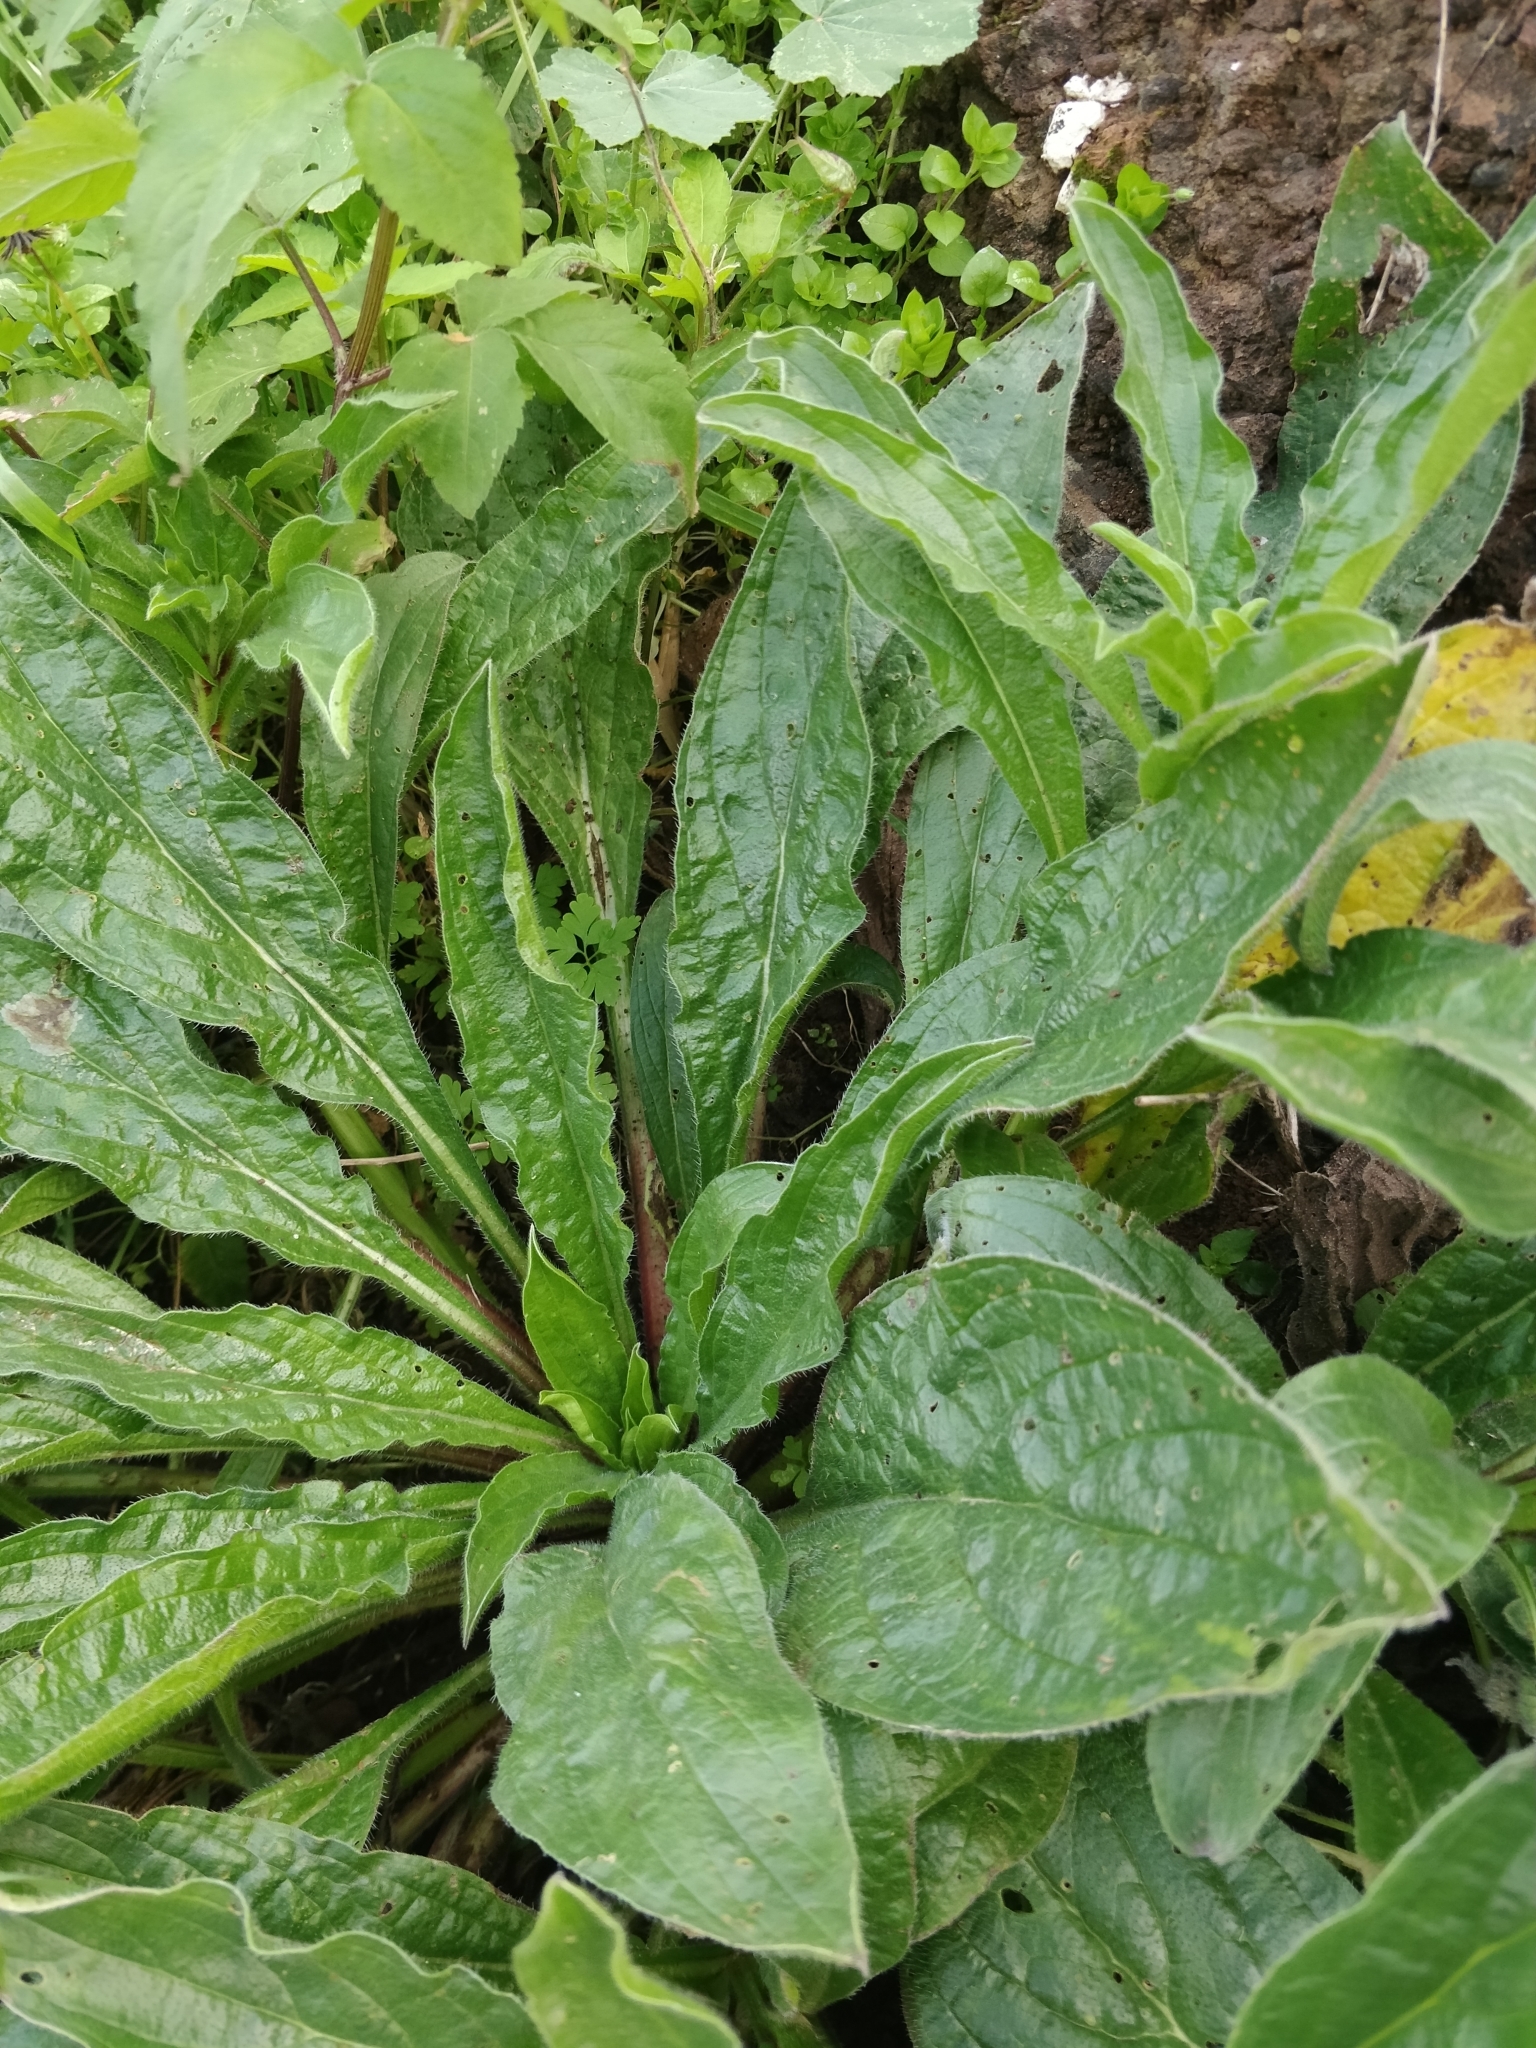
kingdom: Plantae
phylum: Tracheophyta
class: Magnoliopsida
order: Boraginales
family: Boraginaceae
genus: Echium
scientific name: Echium plantagineum
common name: Purple viper's-bugloss
